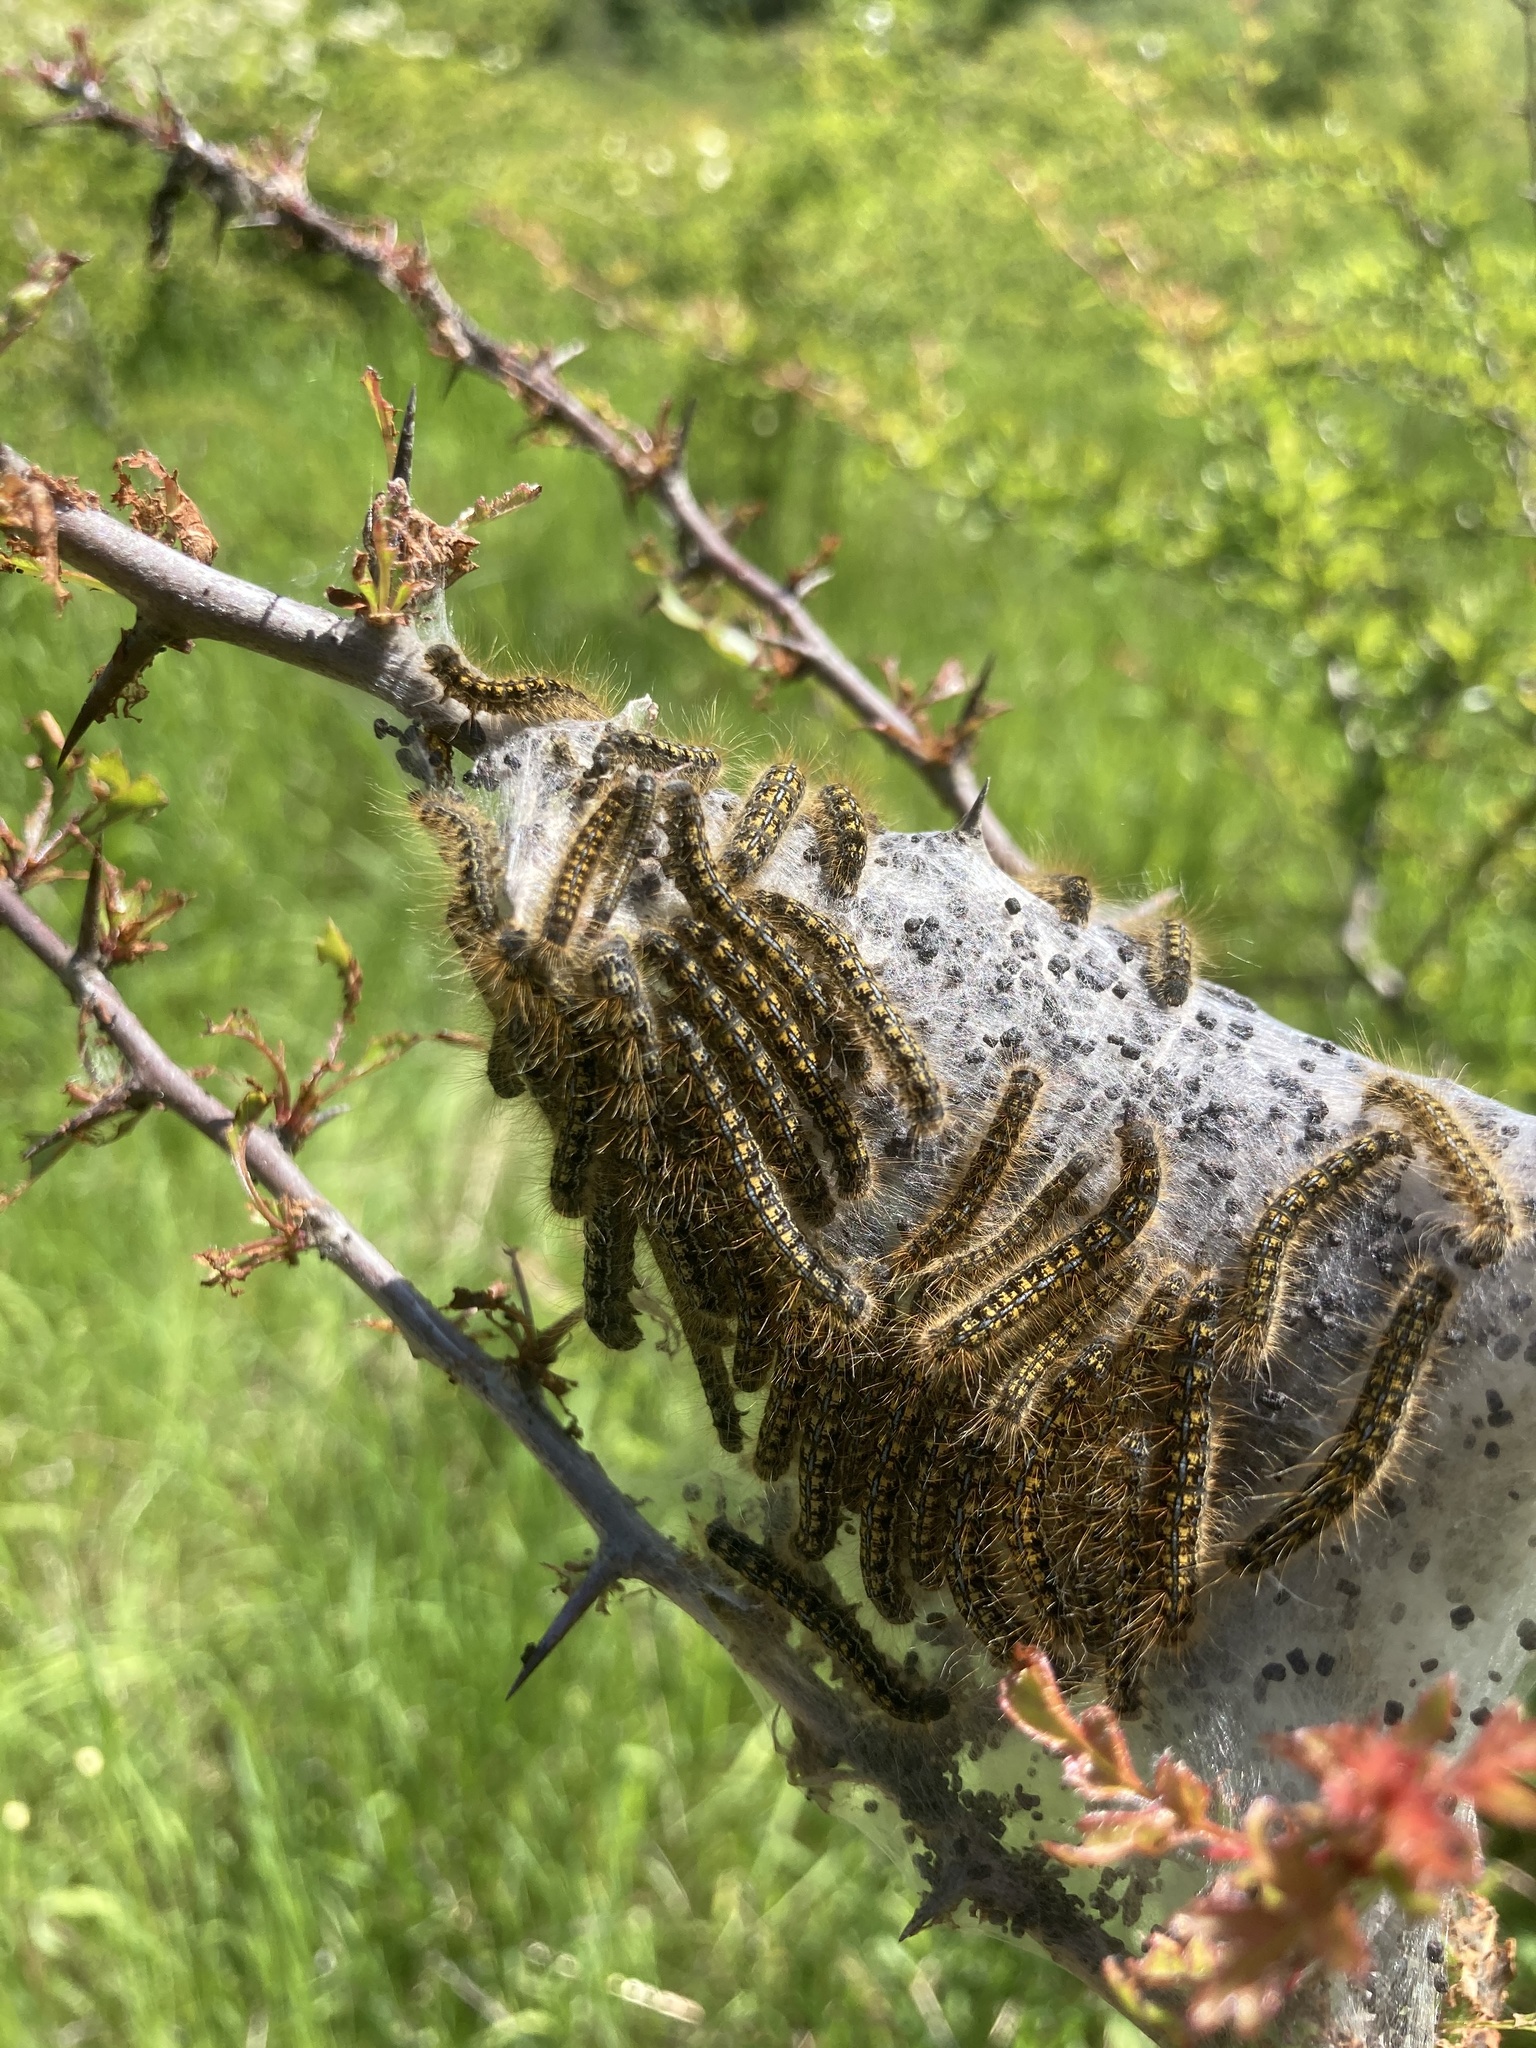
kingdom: Animalia
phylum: Arthropoda
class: Insecta
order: Lepidoptera
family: Lasiocampidae
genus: Malacosoma
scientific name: Malacosoma californica
